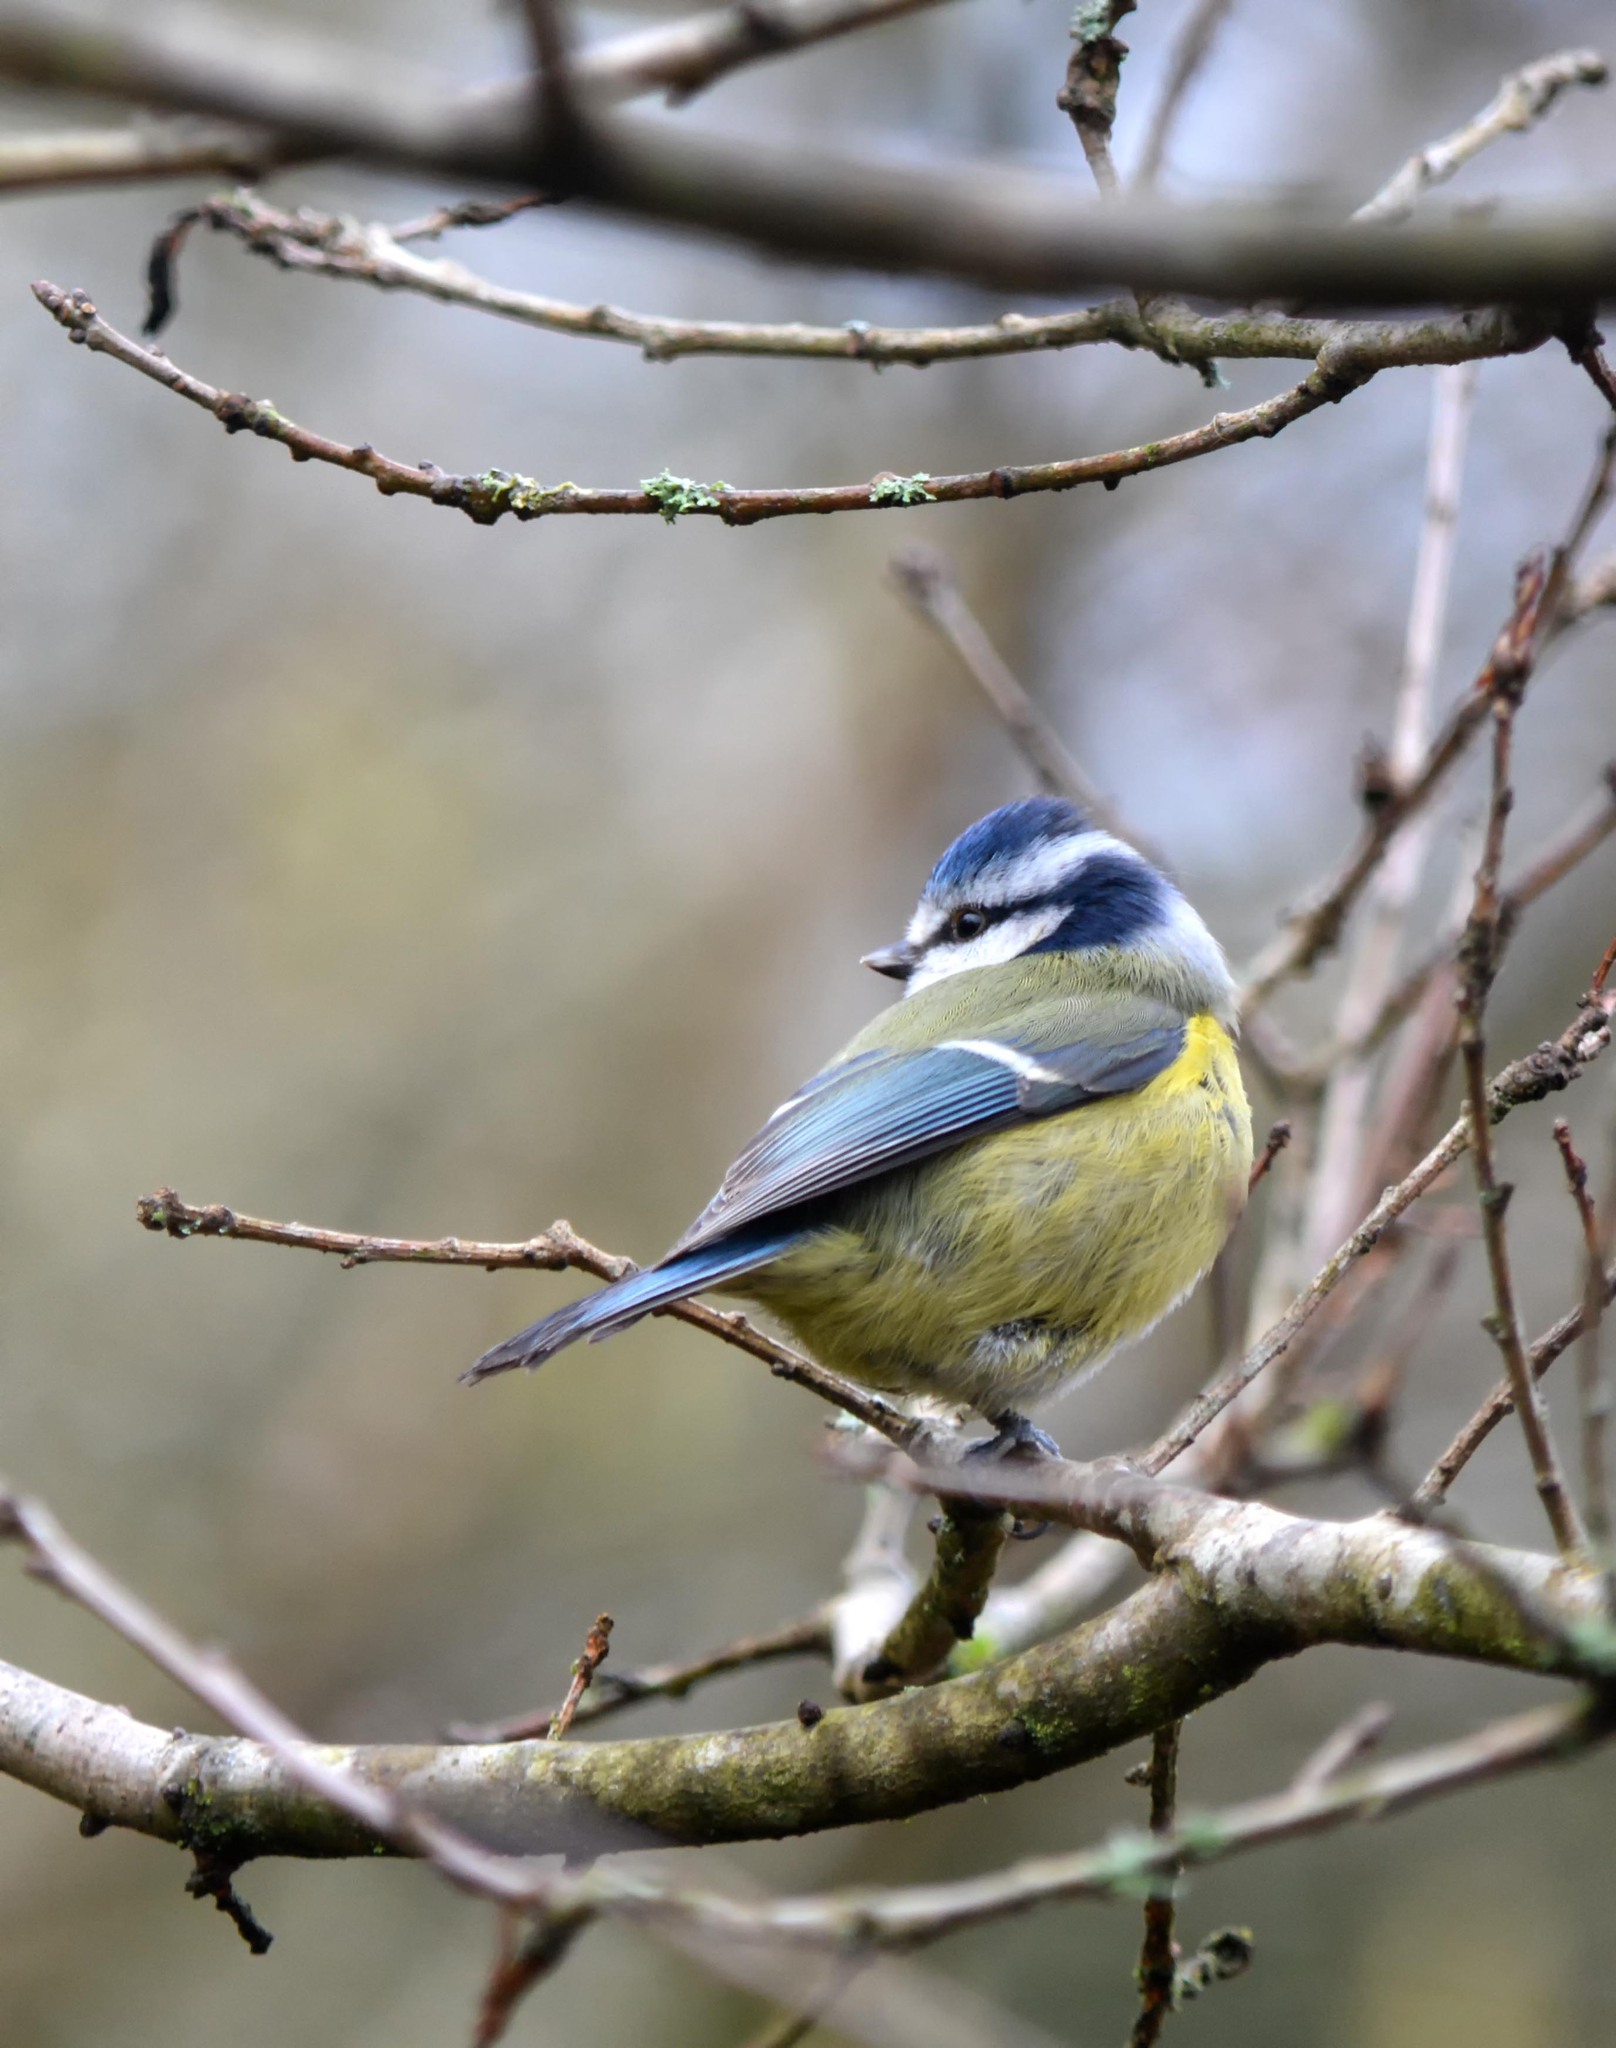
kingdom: Animalia
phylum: Chordata
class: Aves
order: Passeriformes
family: Paridae
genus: Cyanistes
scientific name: Cyanistes caeruleus
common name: Eurasian blue tit
